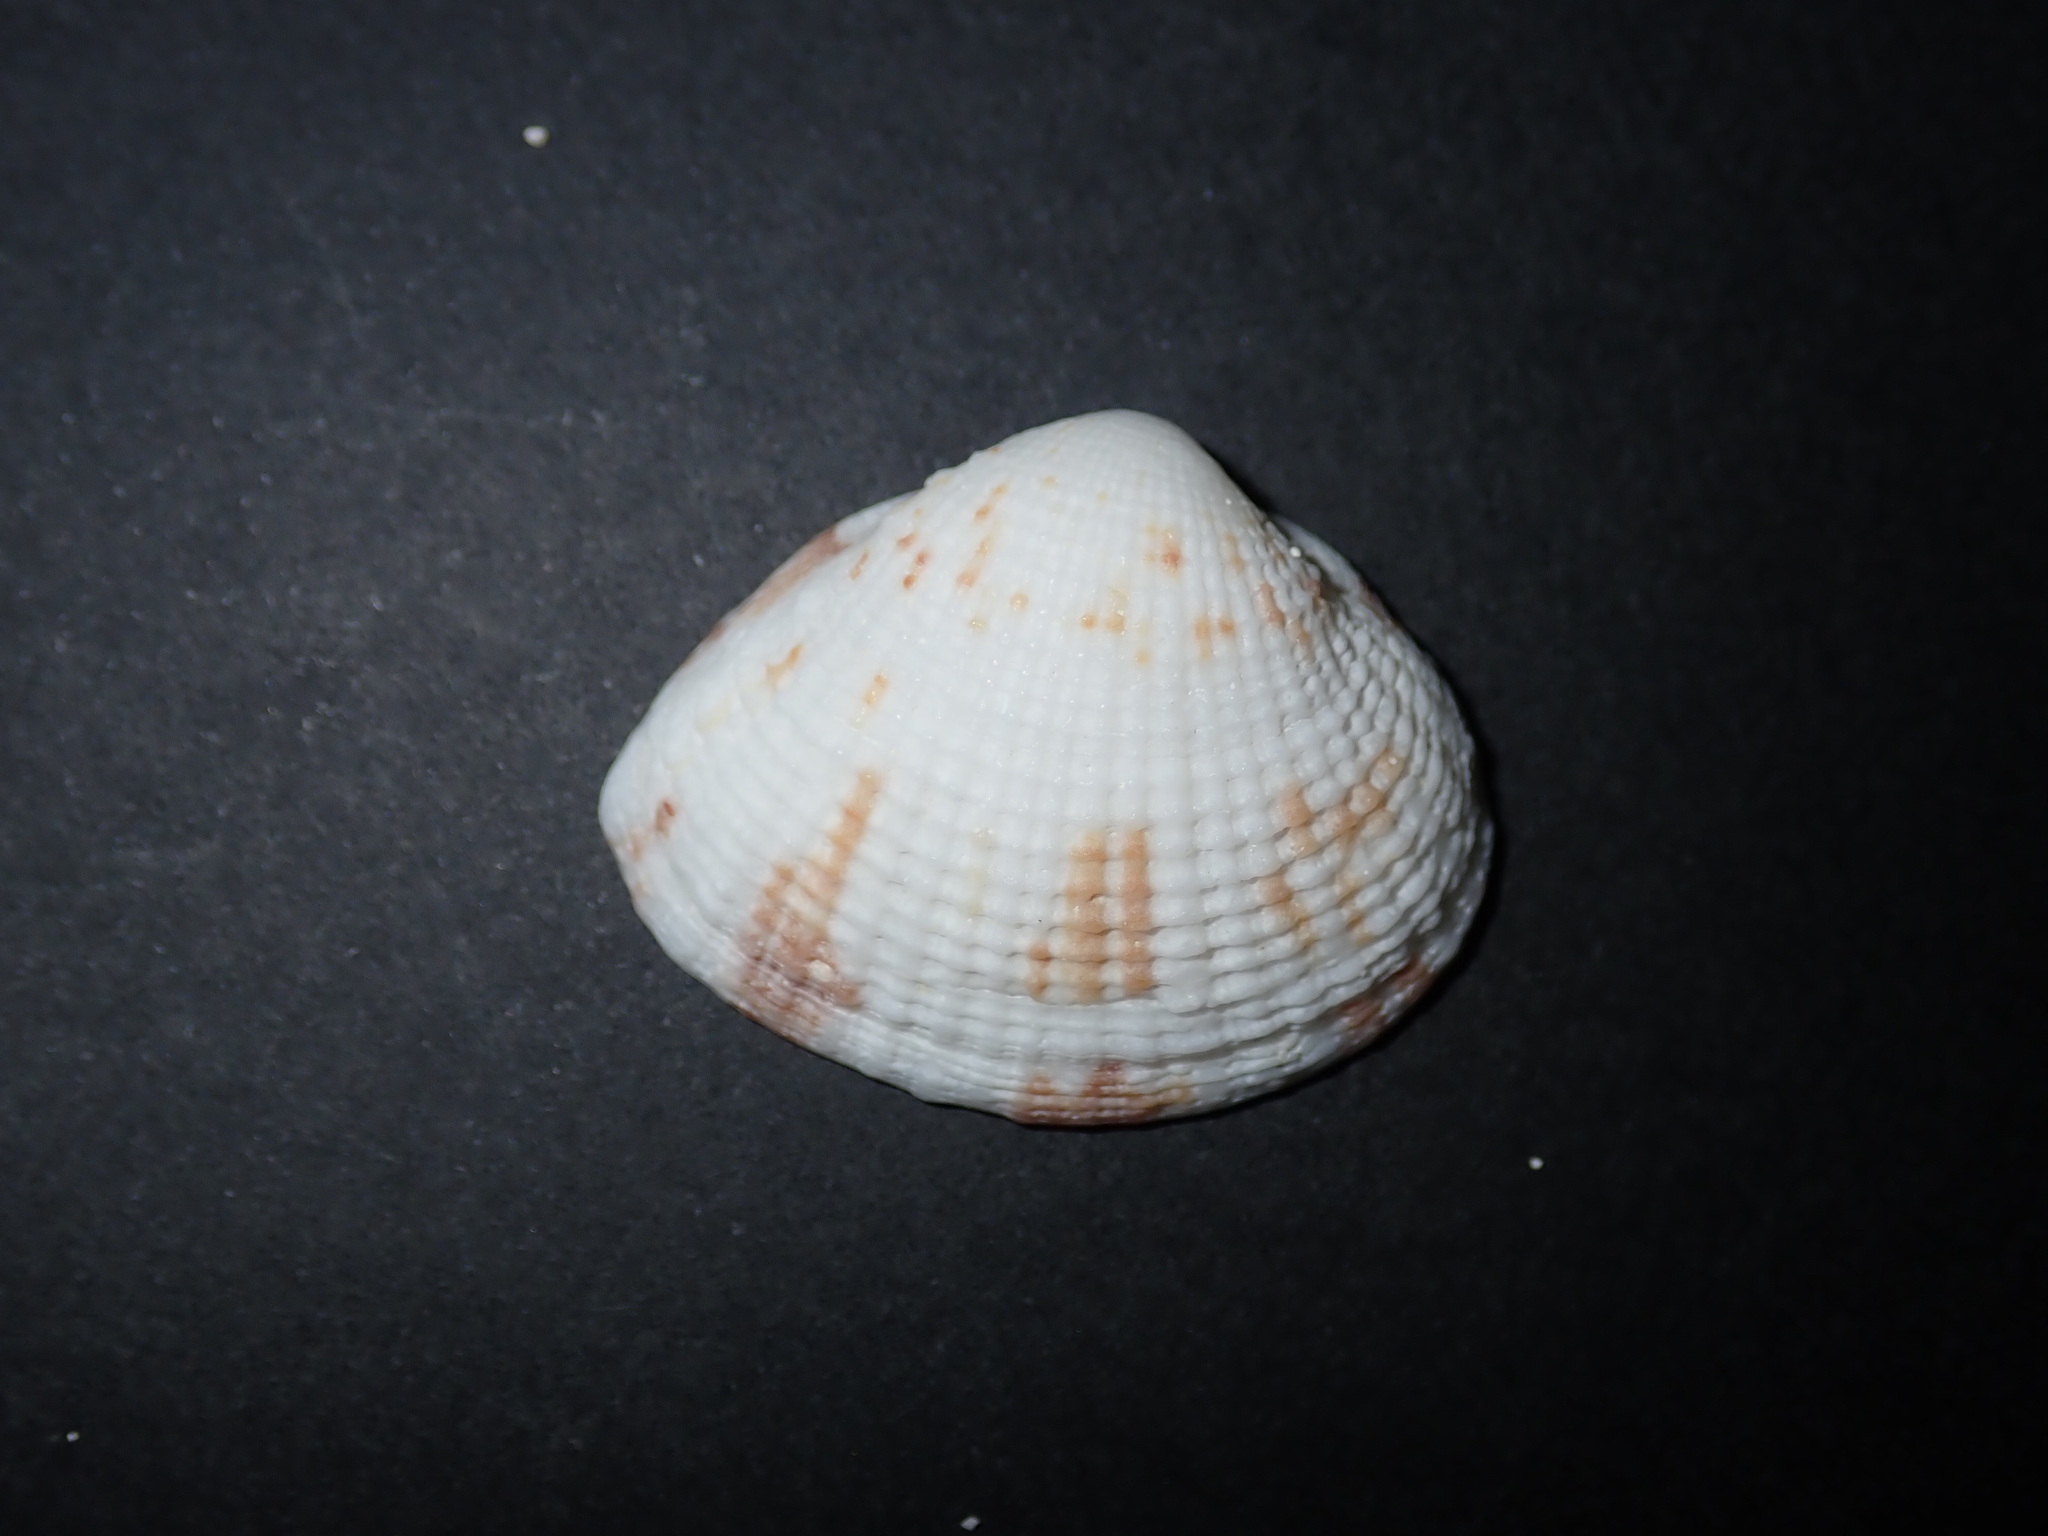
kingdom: Animalia
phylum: Mollusca
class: Bivalvia
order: Venerida
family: Veneridae
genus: Timoclea
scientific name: Timoclea marica
